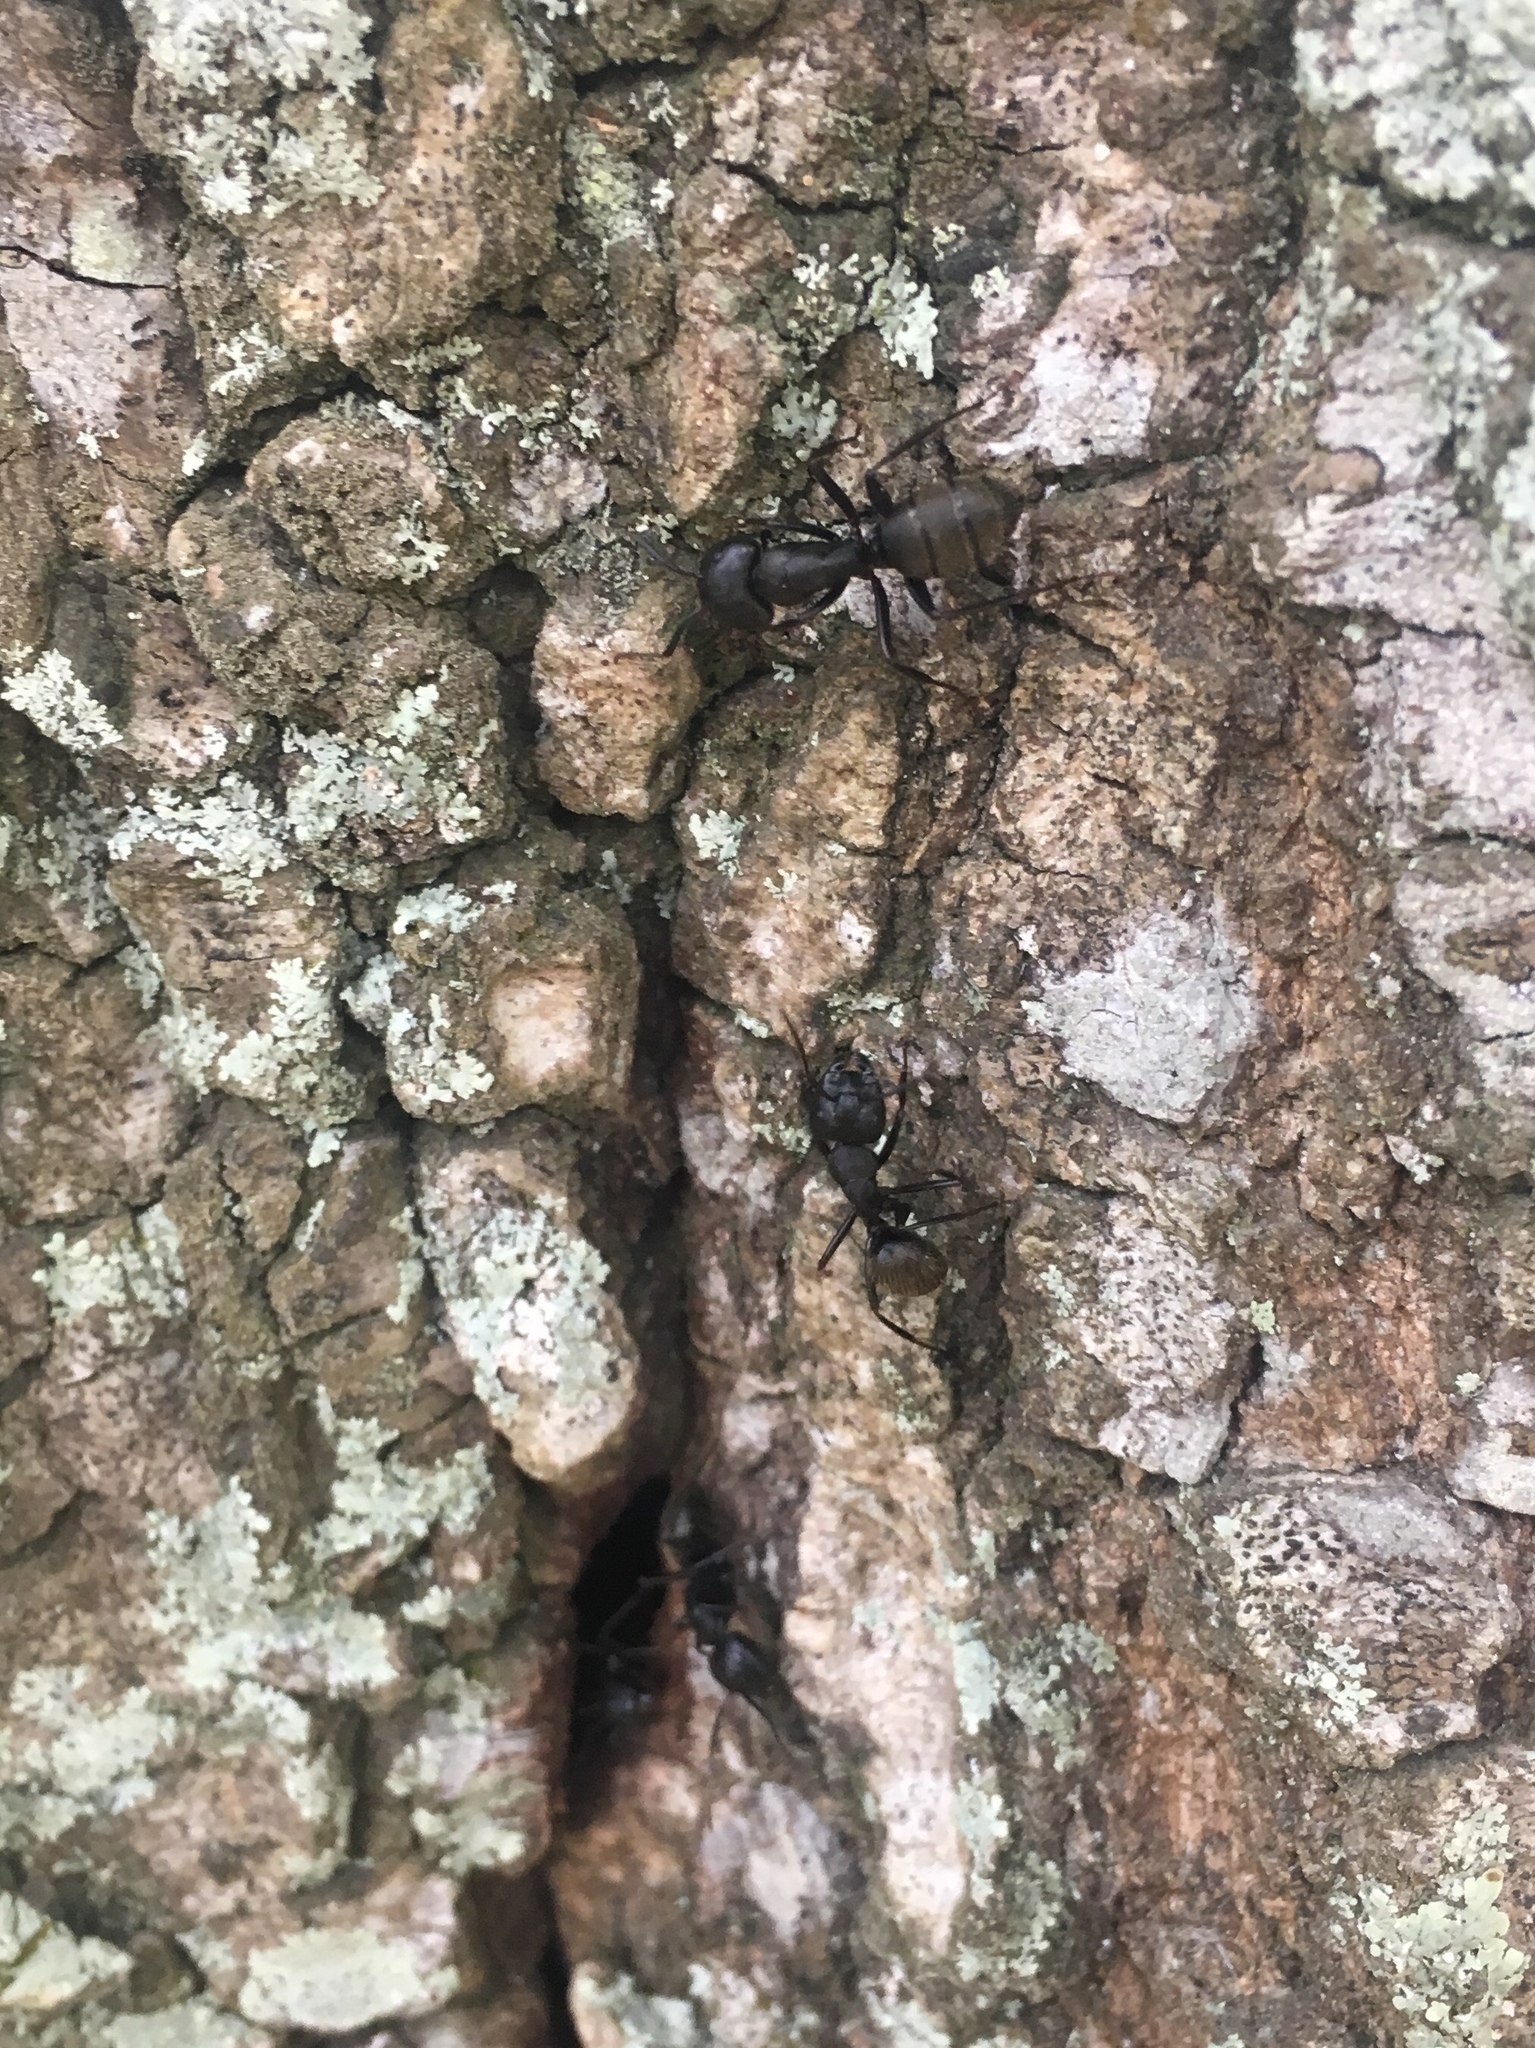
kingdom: Animalia
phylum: Arthropoda
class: Insecta
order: Hymenoptera
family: Formicidae
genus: Camponotus
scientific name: Camponotus pennsylvanicus
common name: Black carpenter ant
